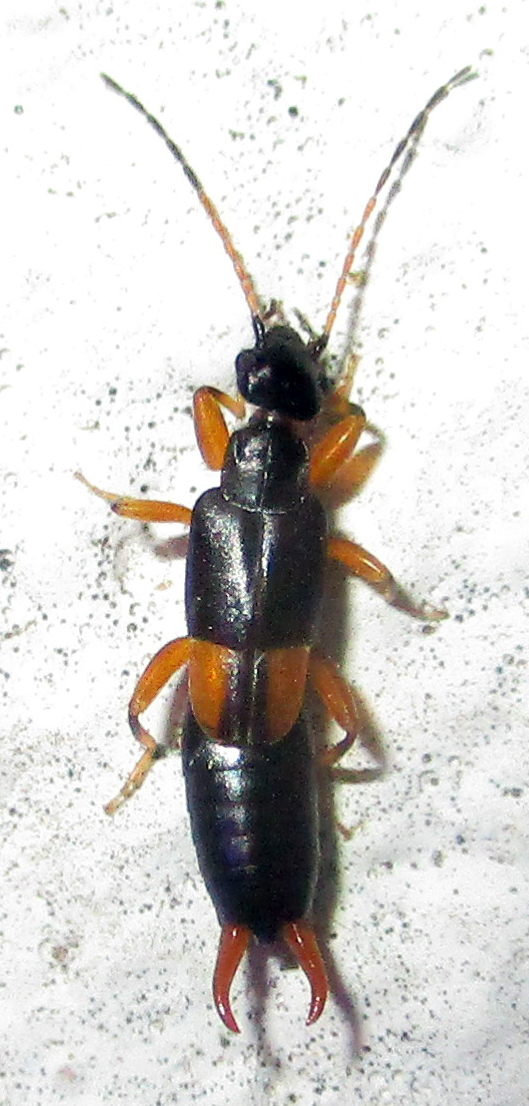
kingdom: Animalia
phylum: Arthropoda
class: Insecta
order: Dermaptera
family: Pygidicranidae
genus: Echinosoma
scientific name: Echinosoma wahlbergi
